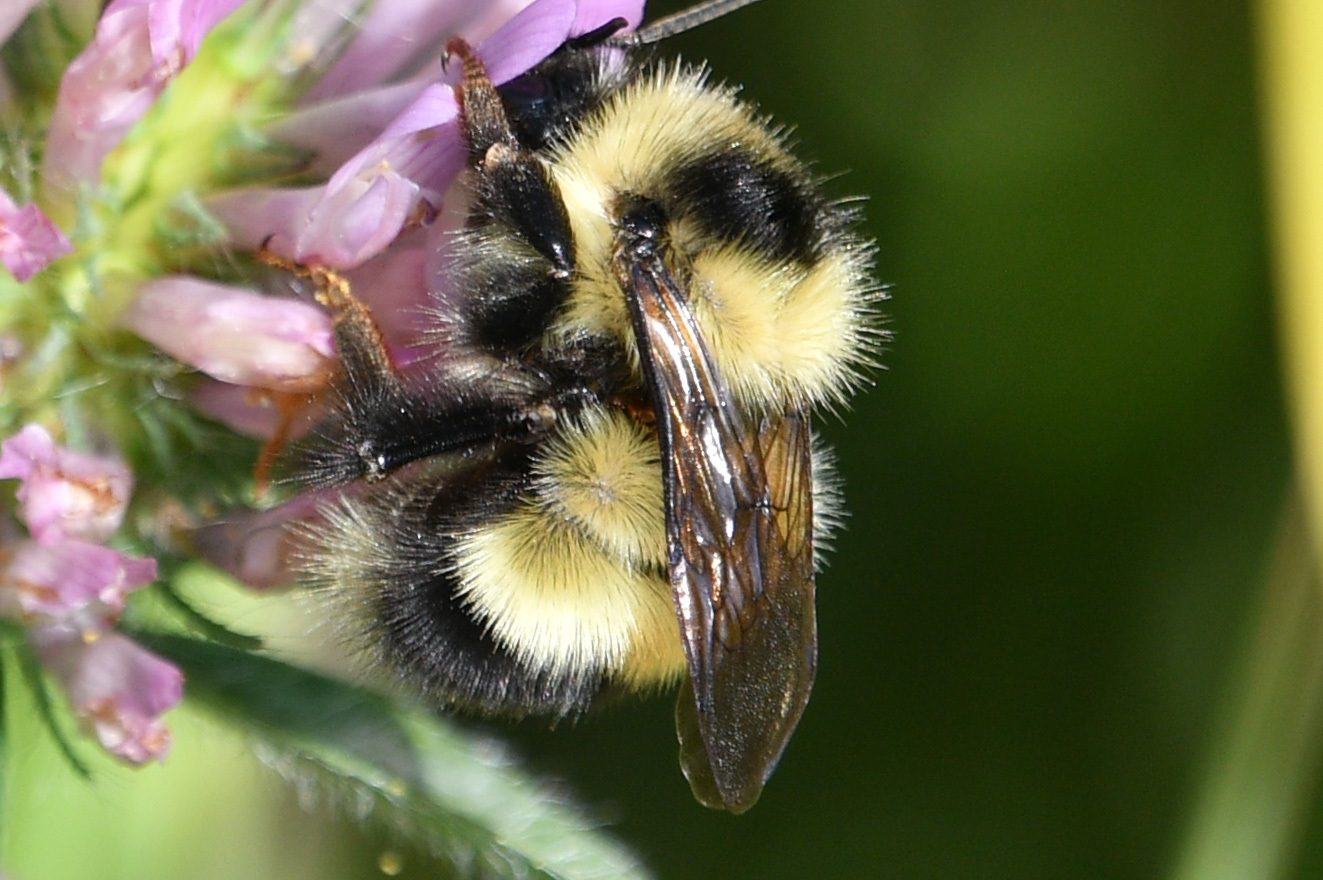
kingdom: Animalia
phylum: Arthropoda
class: Insecta
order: Hymenoptera
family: Apidae
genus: Bombus
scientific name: Bombus sandersoni
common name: Sanderson bumble bee
